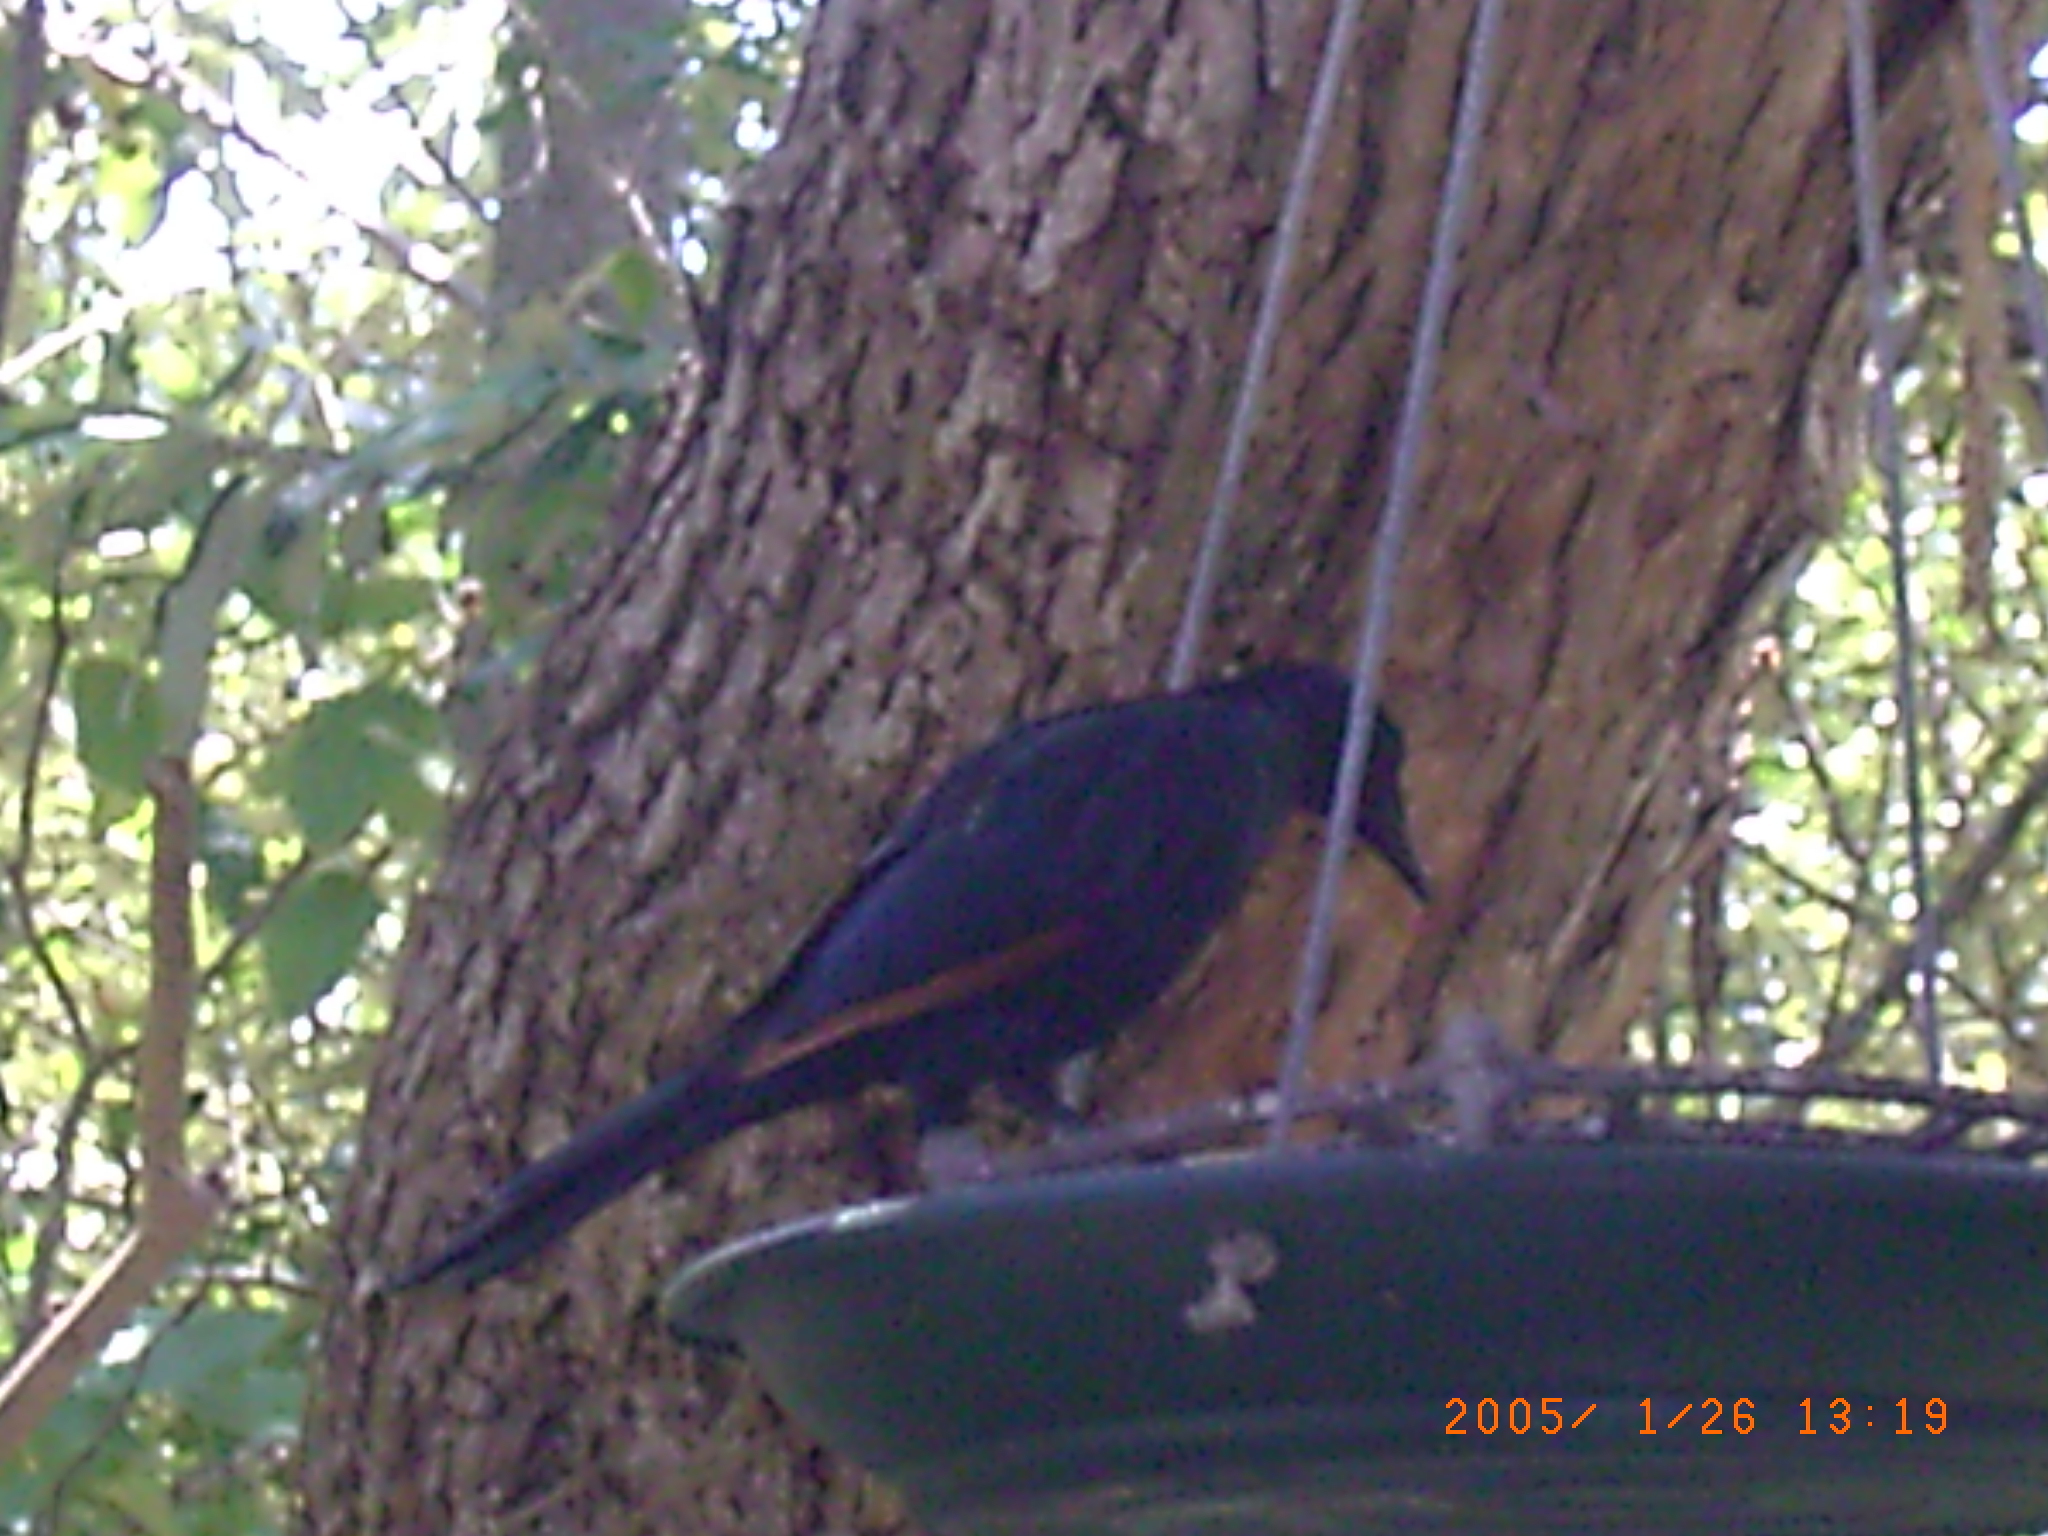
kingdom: Animalia
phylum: Chordata
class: Aves
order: Passeriformes
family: Sturnidae
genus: Onychognathus
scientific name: Onychognathus morio
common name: Red-winged starling
